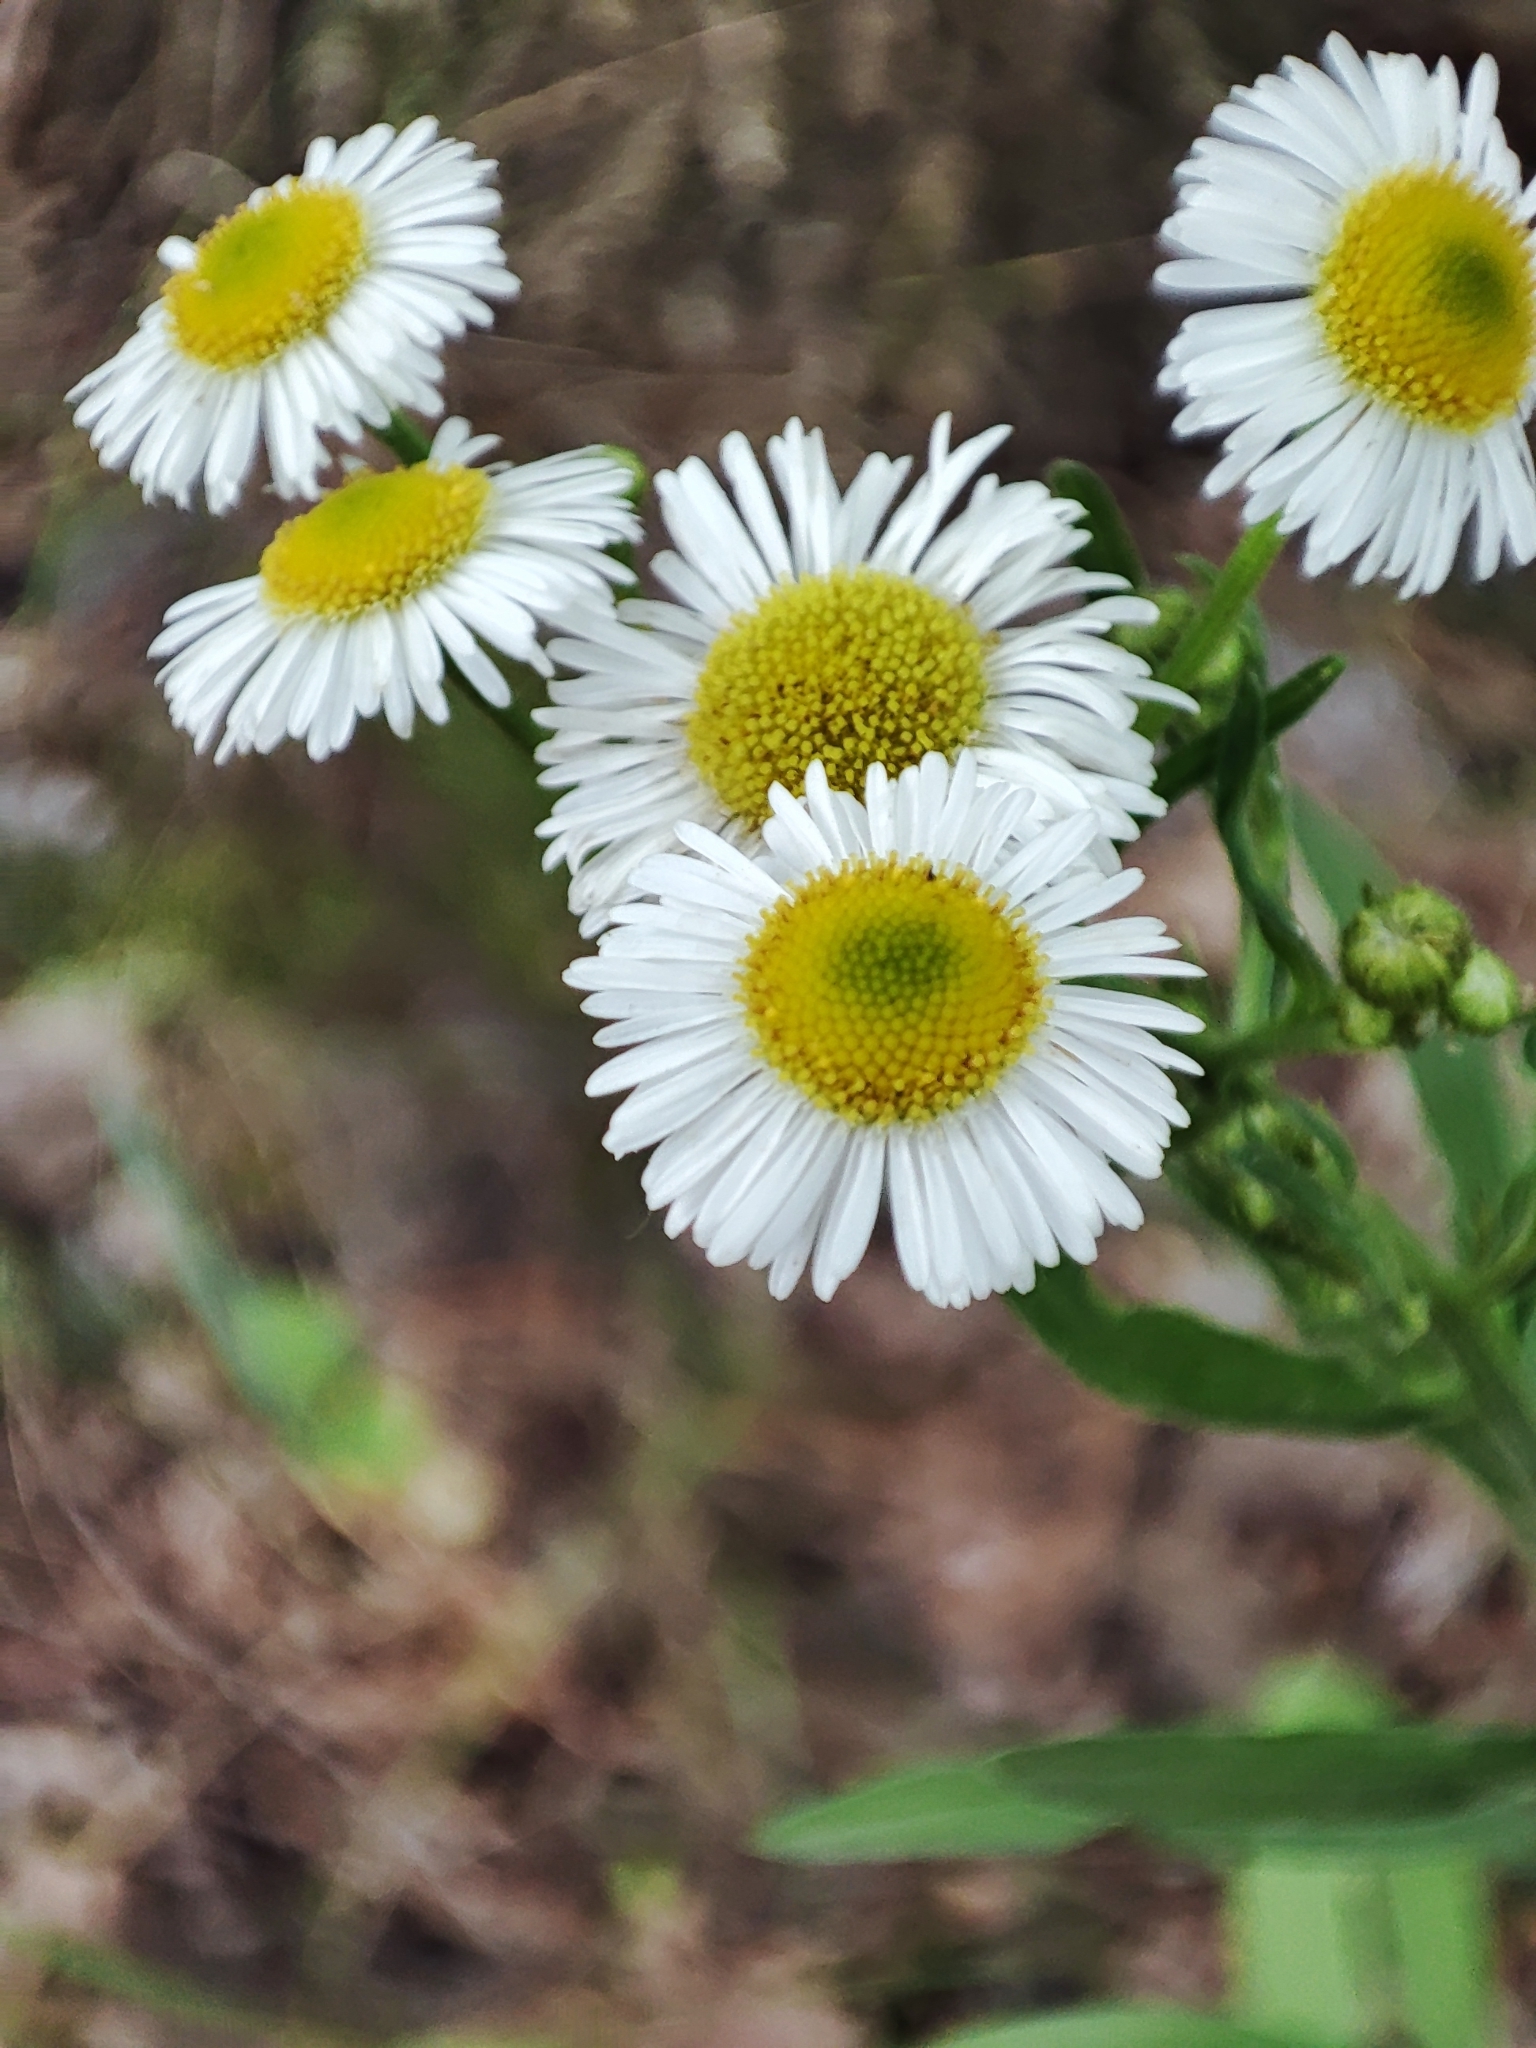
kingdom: Plantae
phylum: Tracheophyta
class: Magnoliopsida
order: Asterales
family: Asteraceae
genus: Erigeron
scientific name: Erigeron annuus
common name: Tall fleabane
